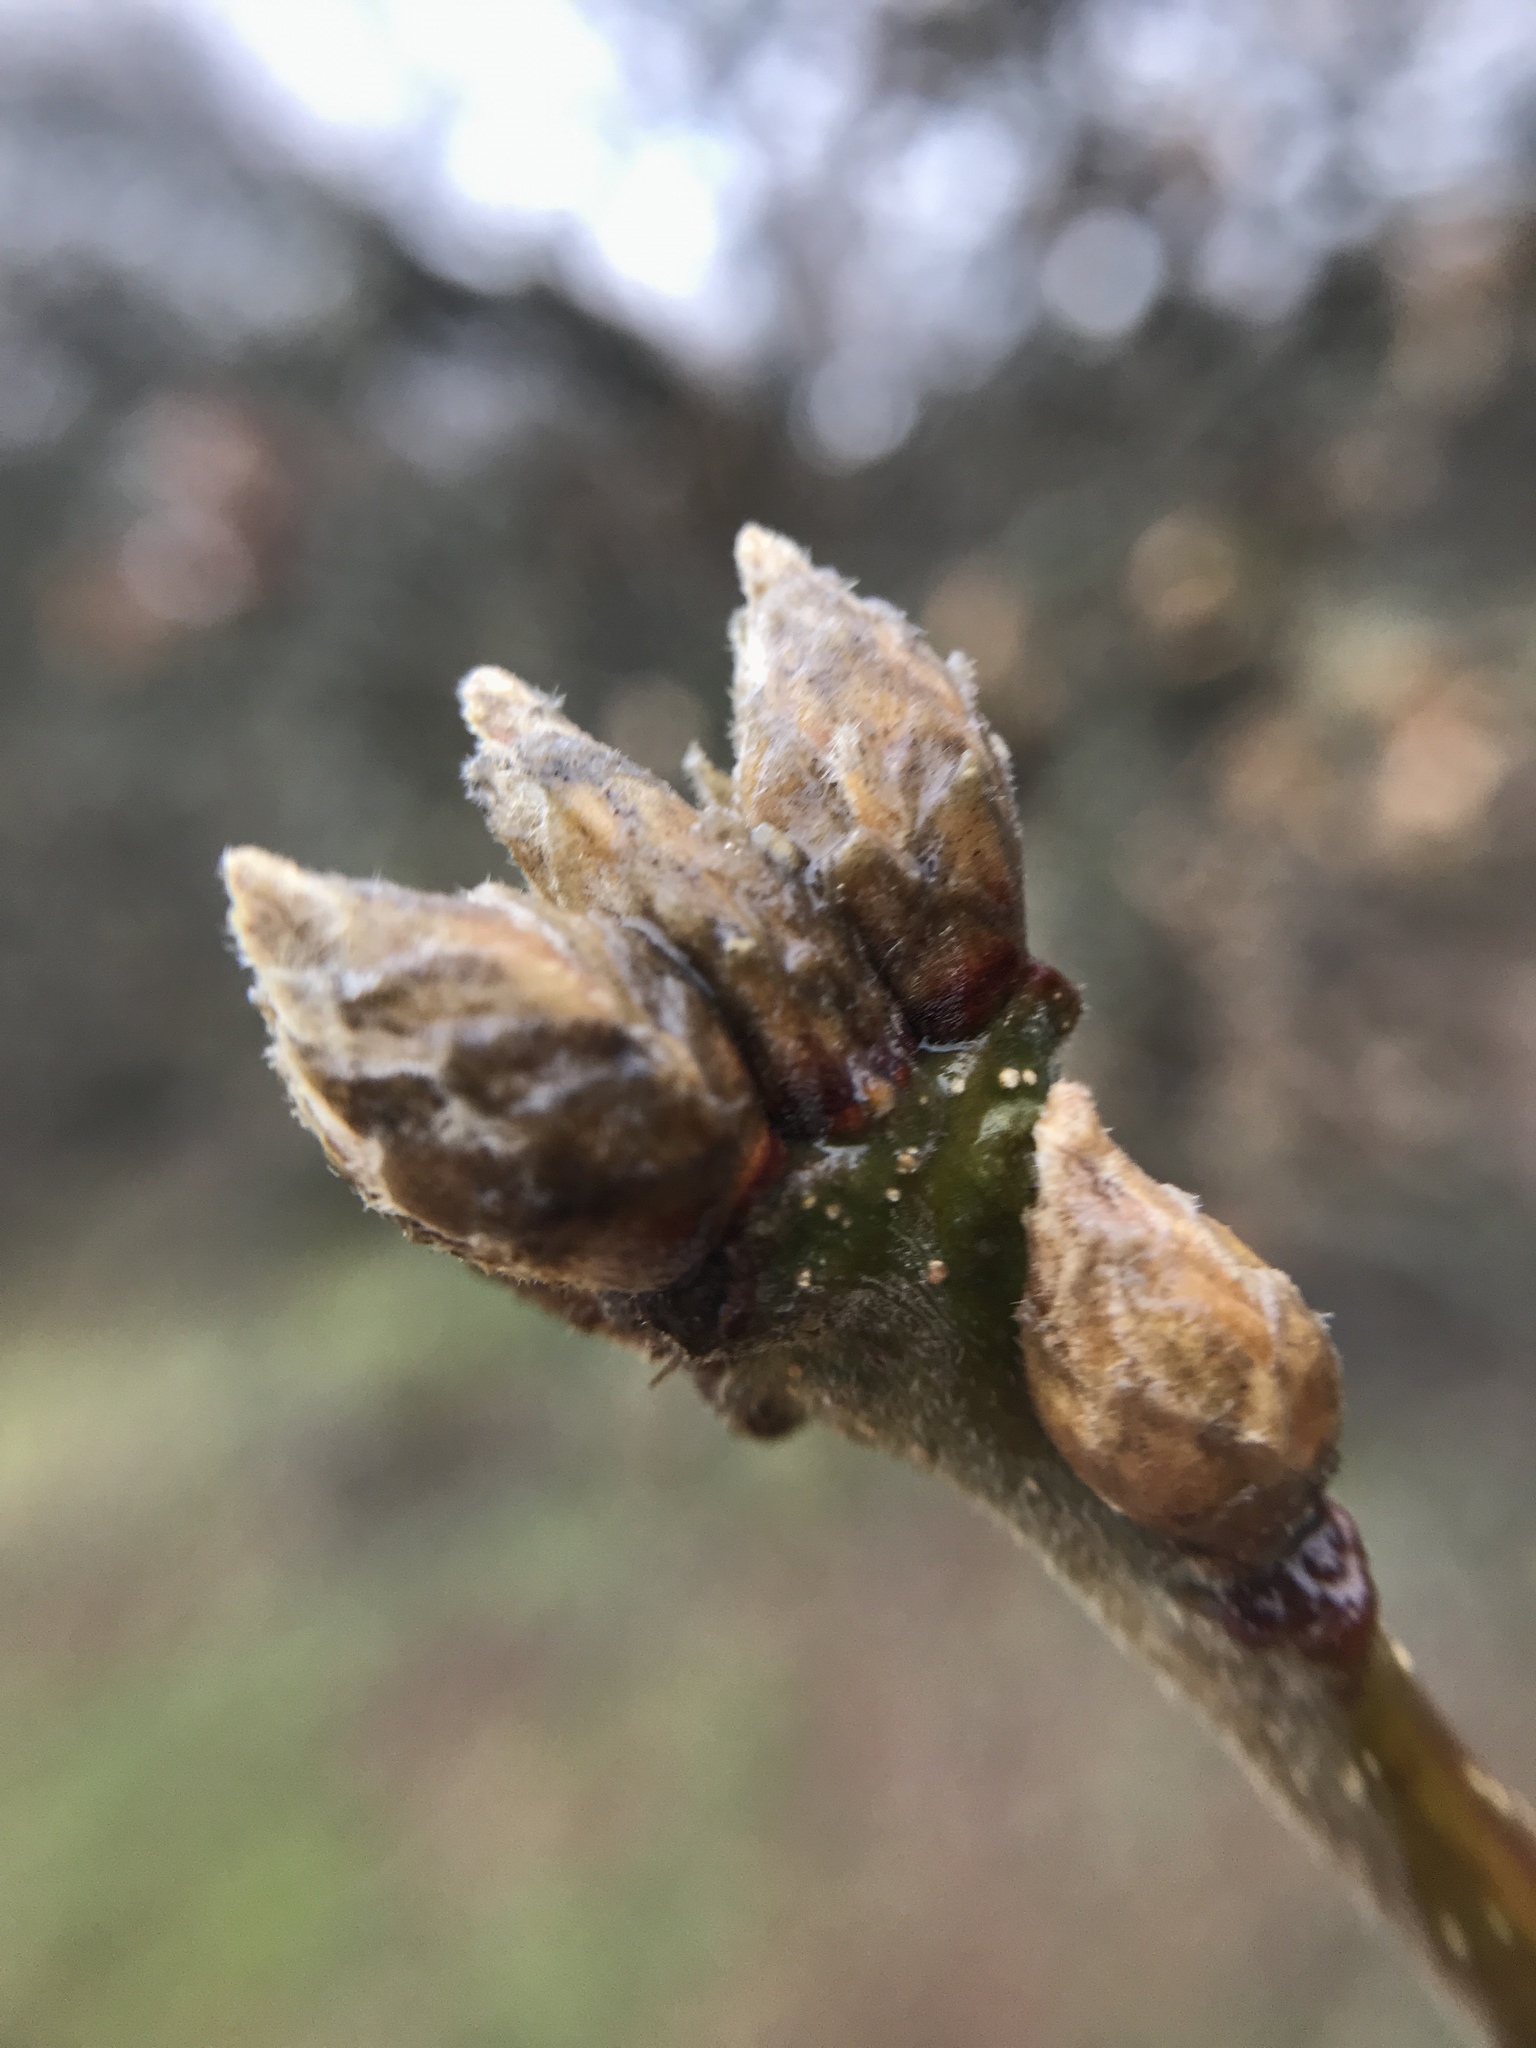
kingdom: Plantae
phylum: Tracheophyta
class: Magnoliopsida
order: Fagales
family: Fagaceae
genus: Quercus
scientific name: Quercus garryana
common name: Garry oak
